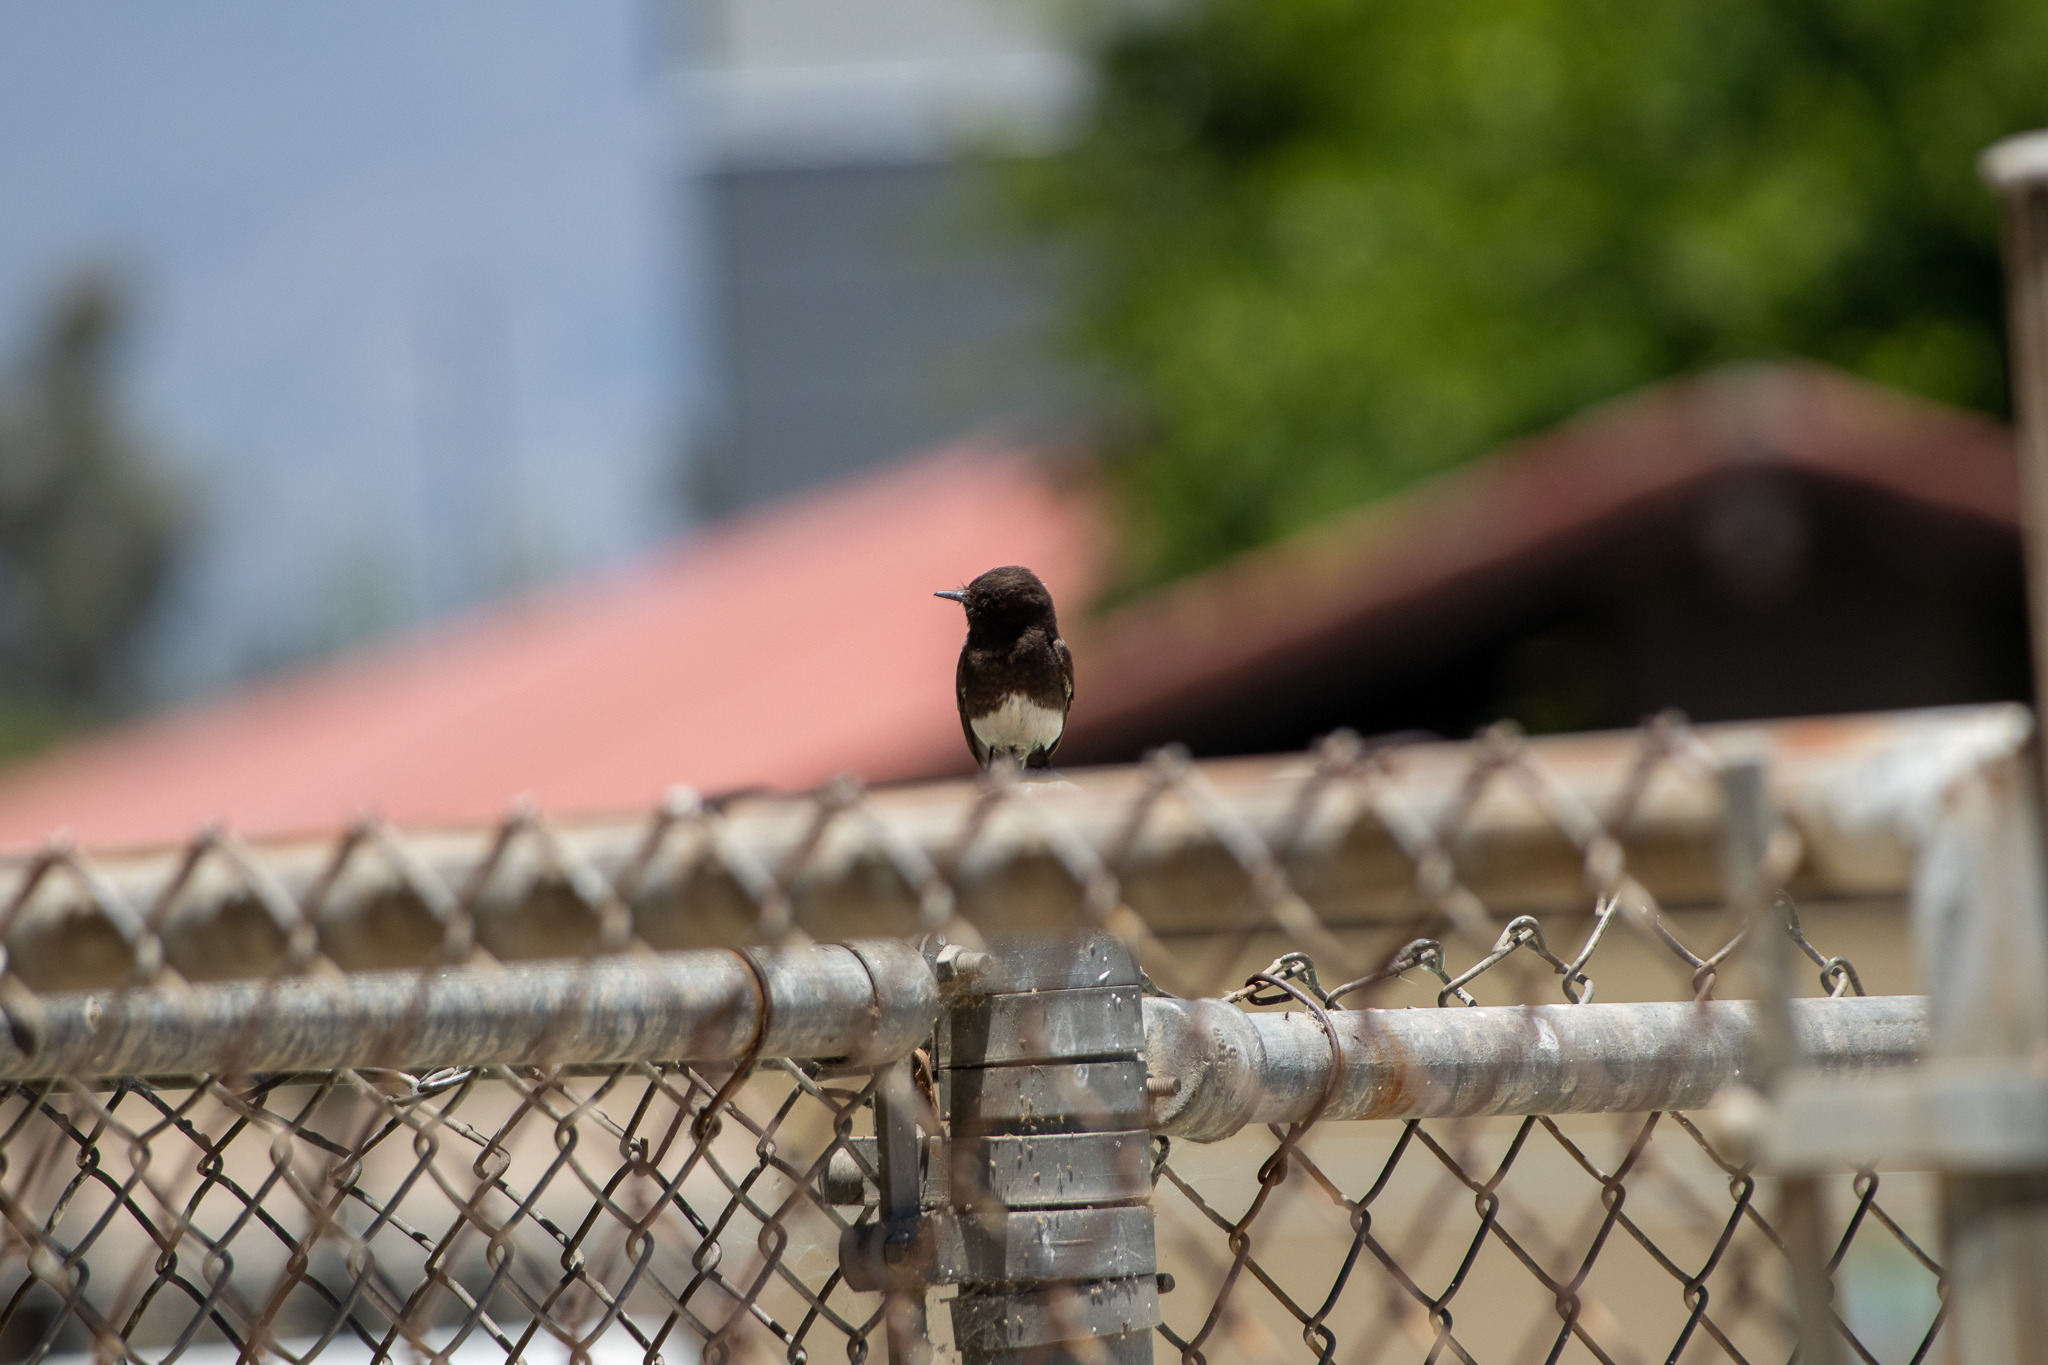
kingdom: Animalia
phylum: Chordata
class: Aves
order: Passeriformes
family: Tyrannidae
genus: Sayornis
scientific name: Sayornis nigricans
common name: Black phoebe
